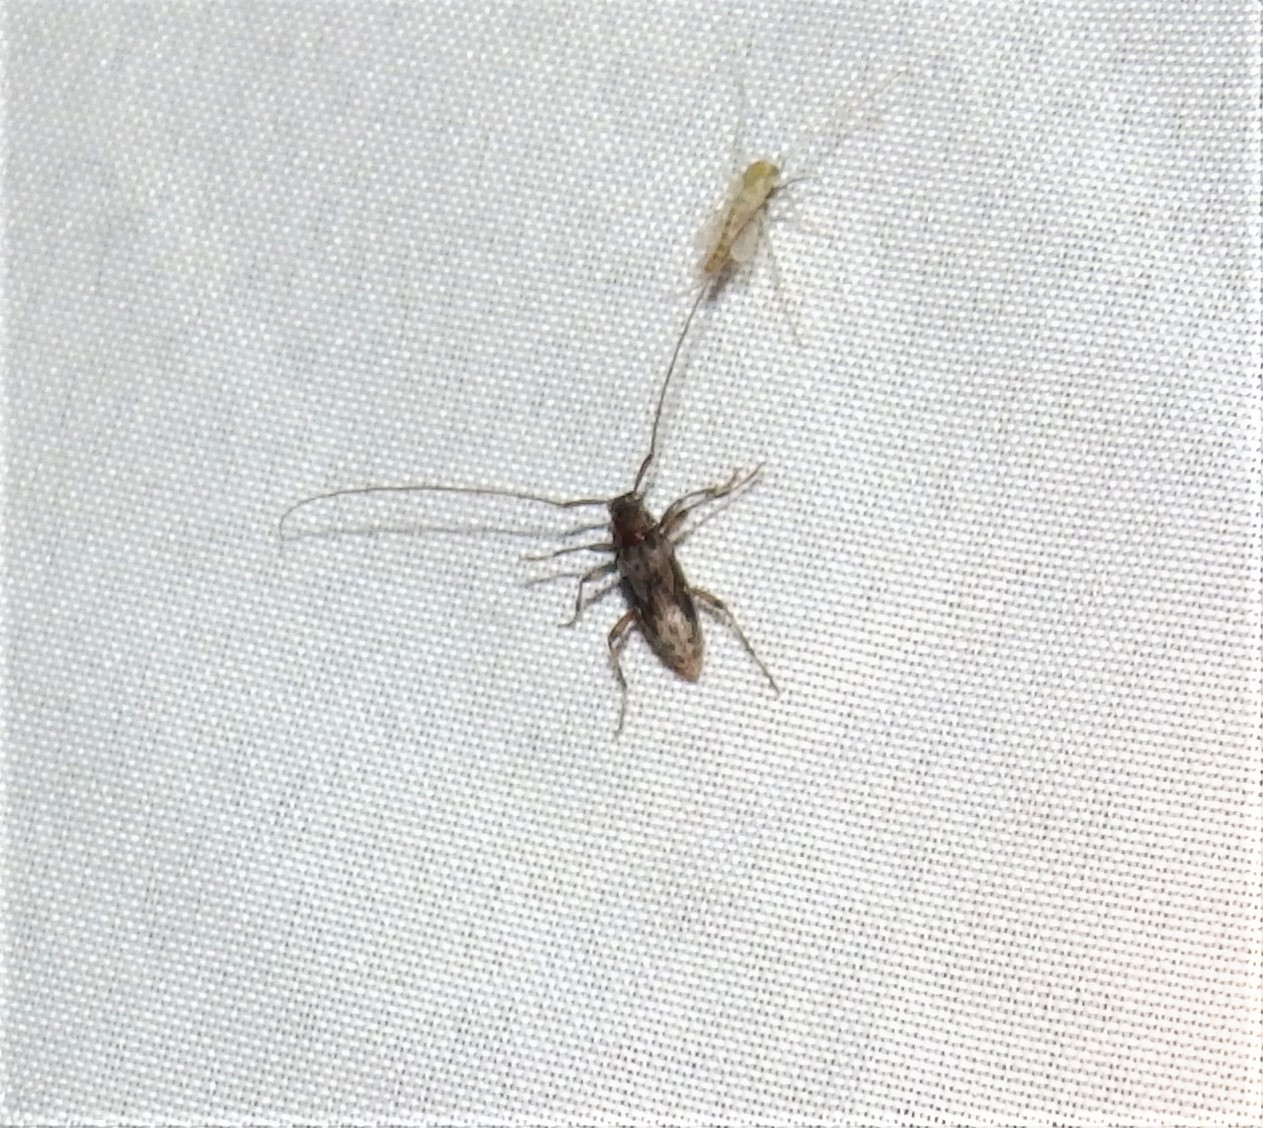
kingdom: Animalia
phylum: Arthropoda
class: Insecta
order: Coleoptera
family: Cerambycidae
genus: Lepturges
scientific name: Lepturges confluens
